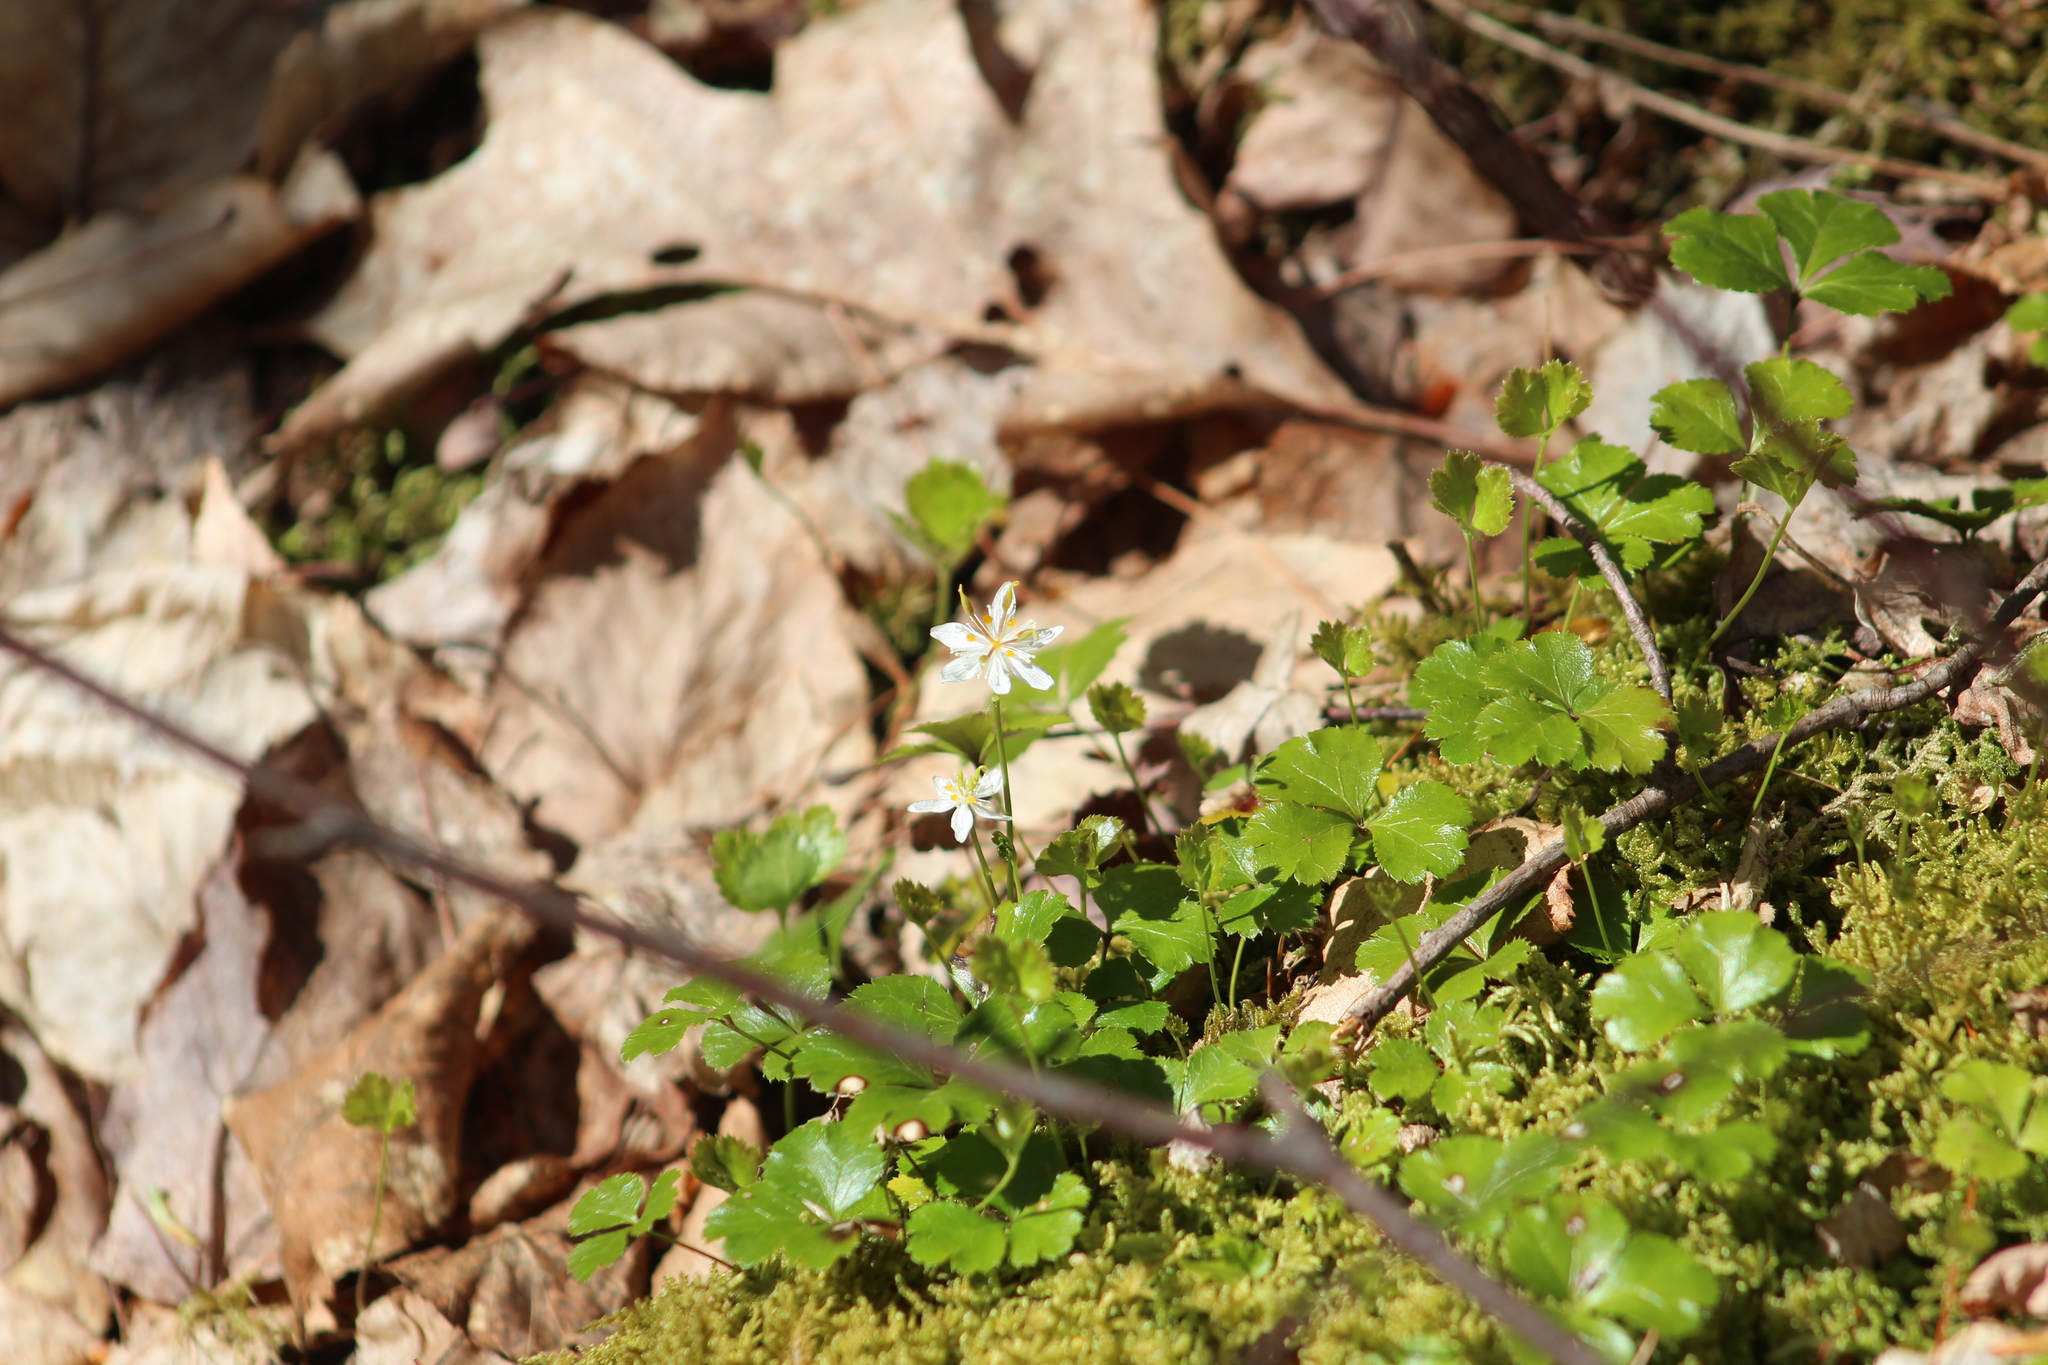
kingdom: Plantae
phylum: Tracheophyta
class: Magnoliopsida
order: Ranunculales
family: Ranunculaceae
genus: Coptis
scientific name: Coptis trifolia
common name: Canker-root
